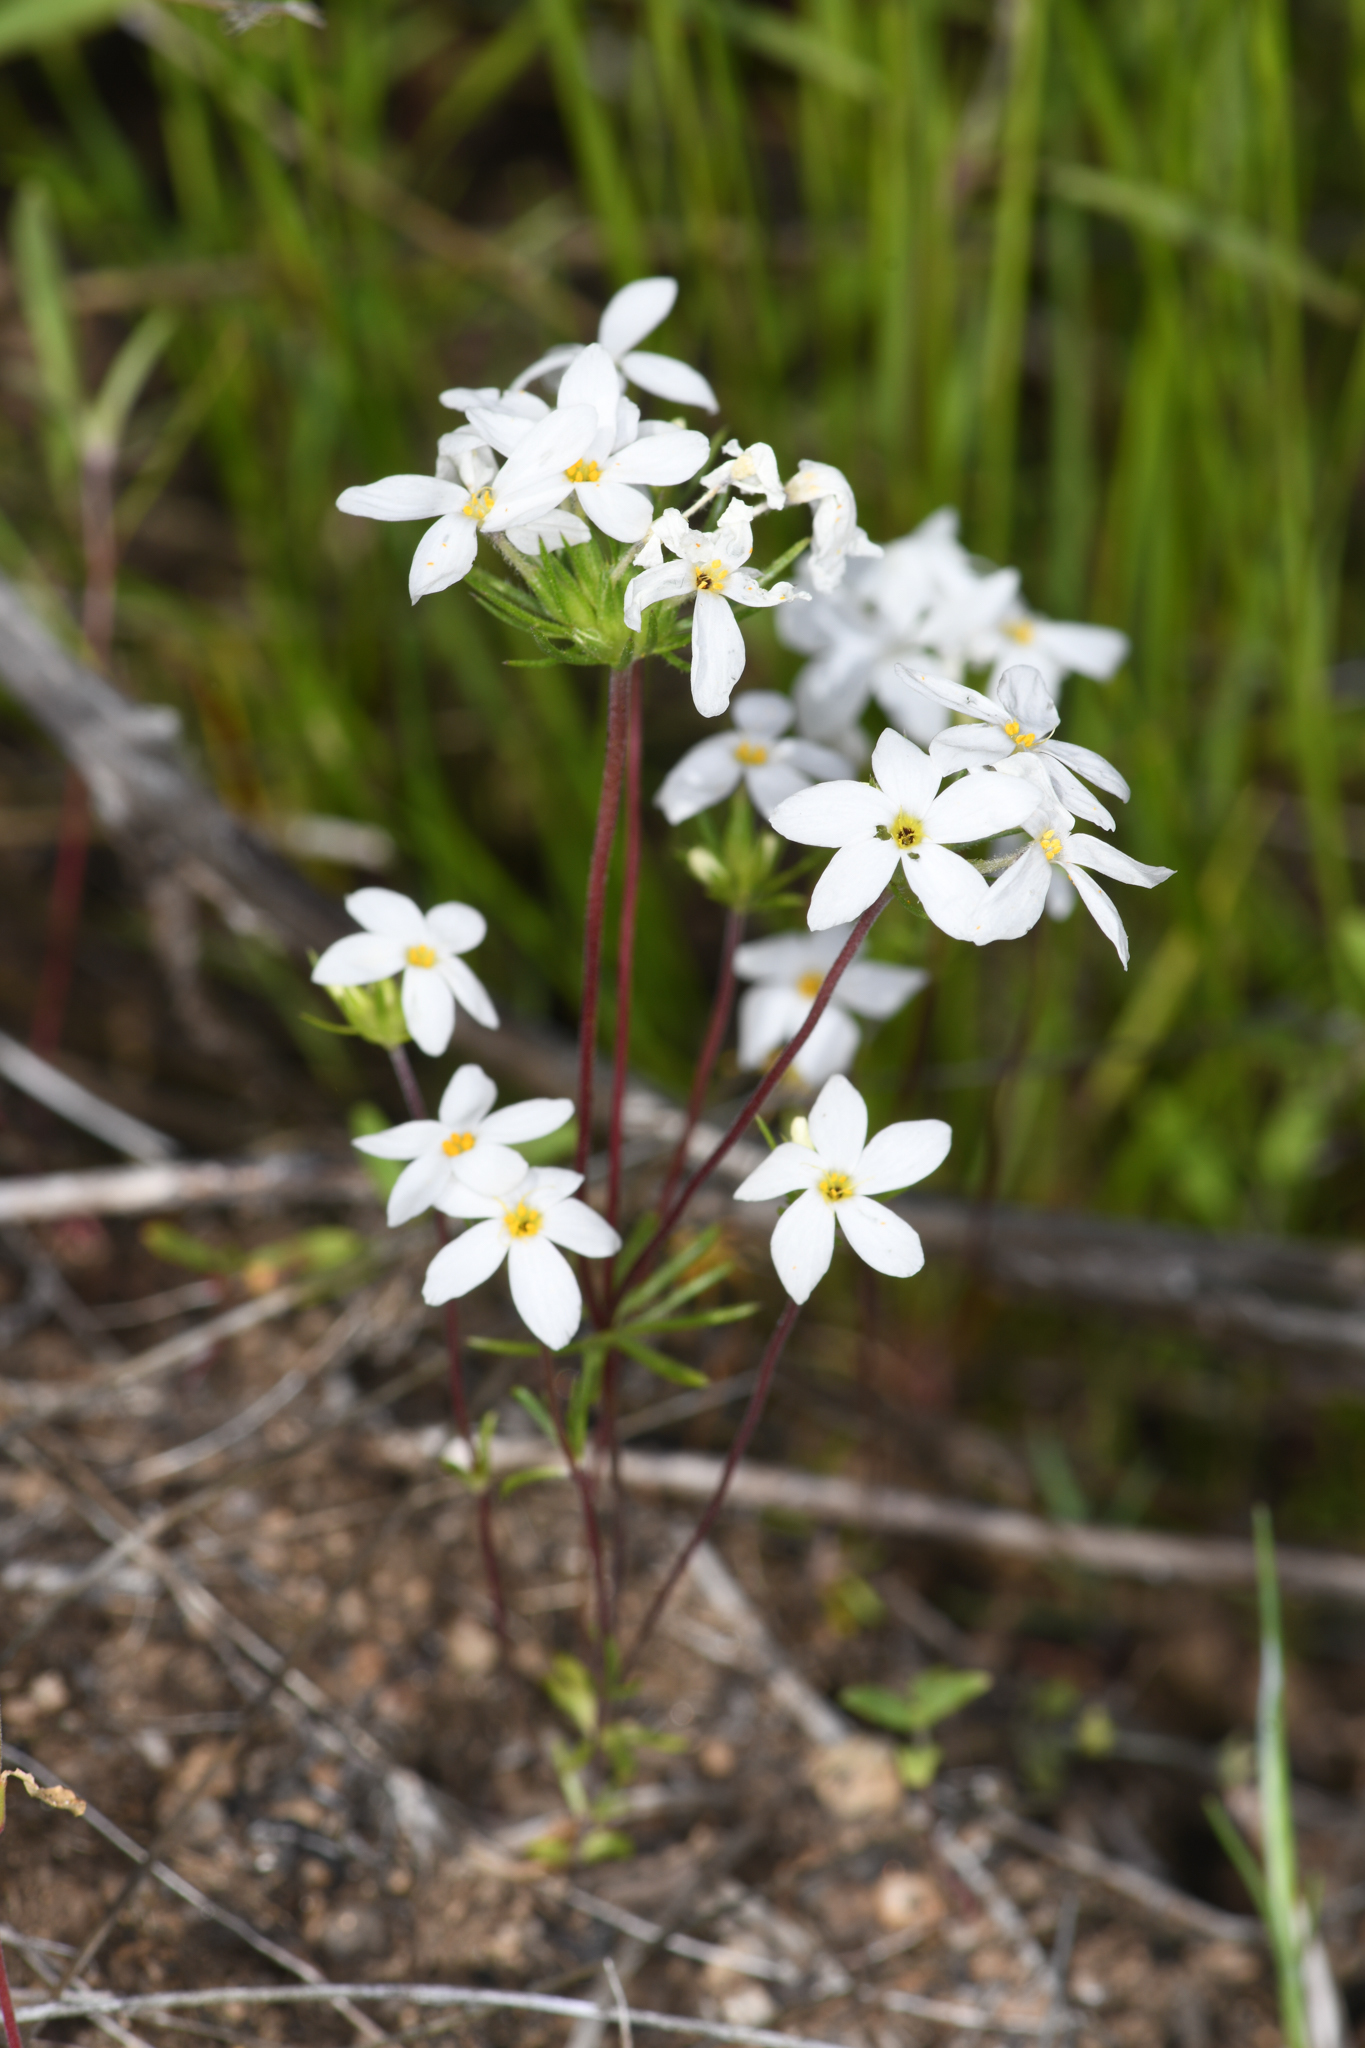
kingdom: Plantae
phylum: Tracheophyta
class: Magnoliopsida
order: Ericales
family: Polemoniaceae
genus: Leptosiphon
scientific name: Leptosiphon serrulatus
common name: Madera linanthus
